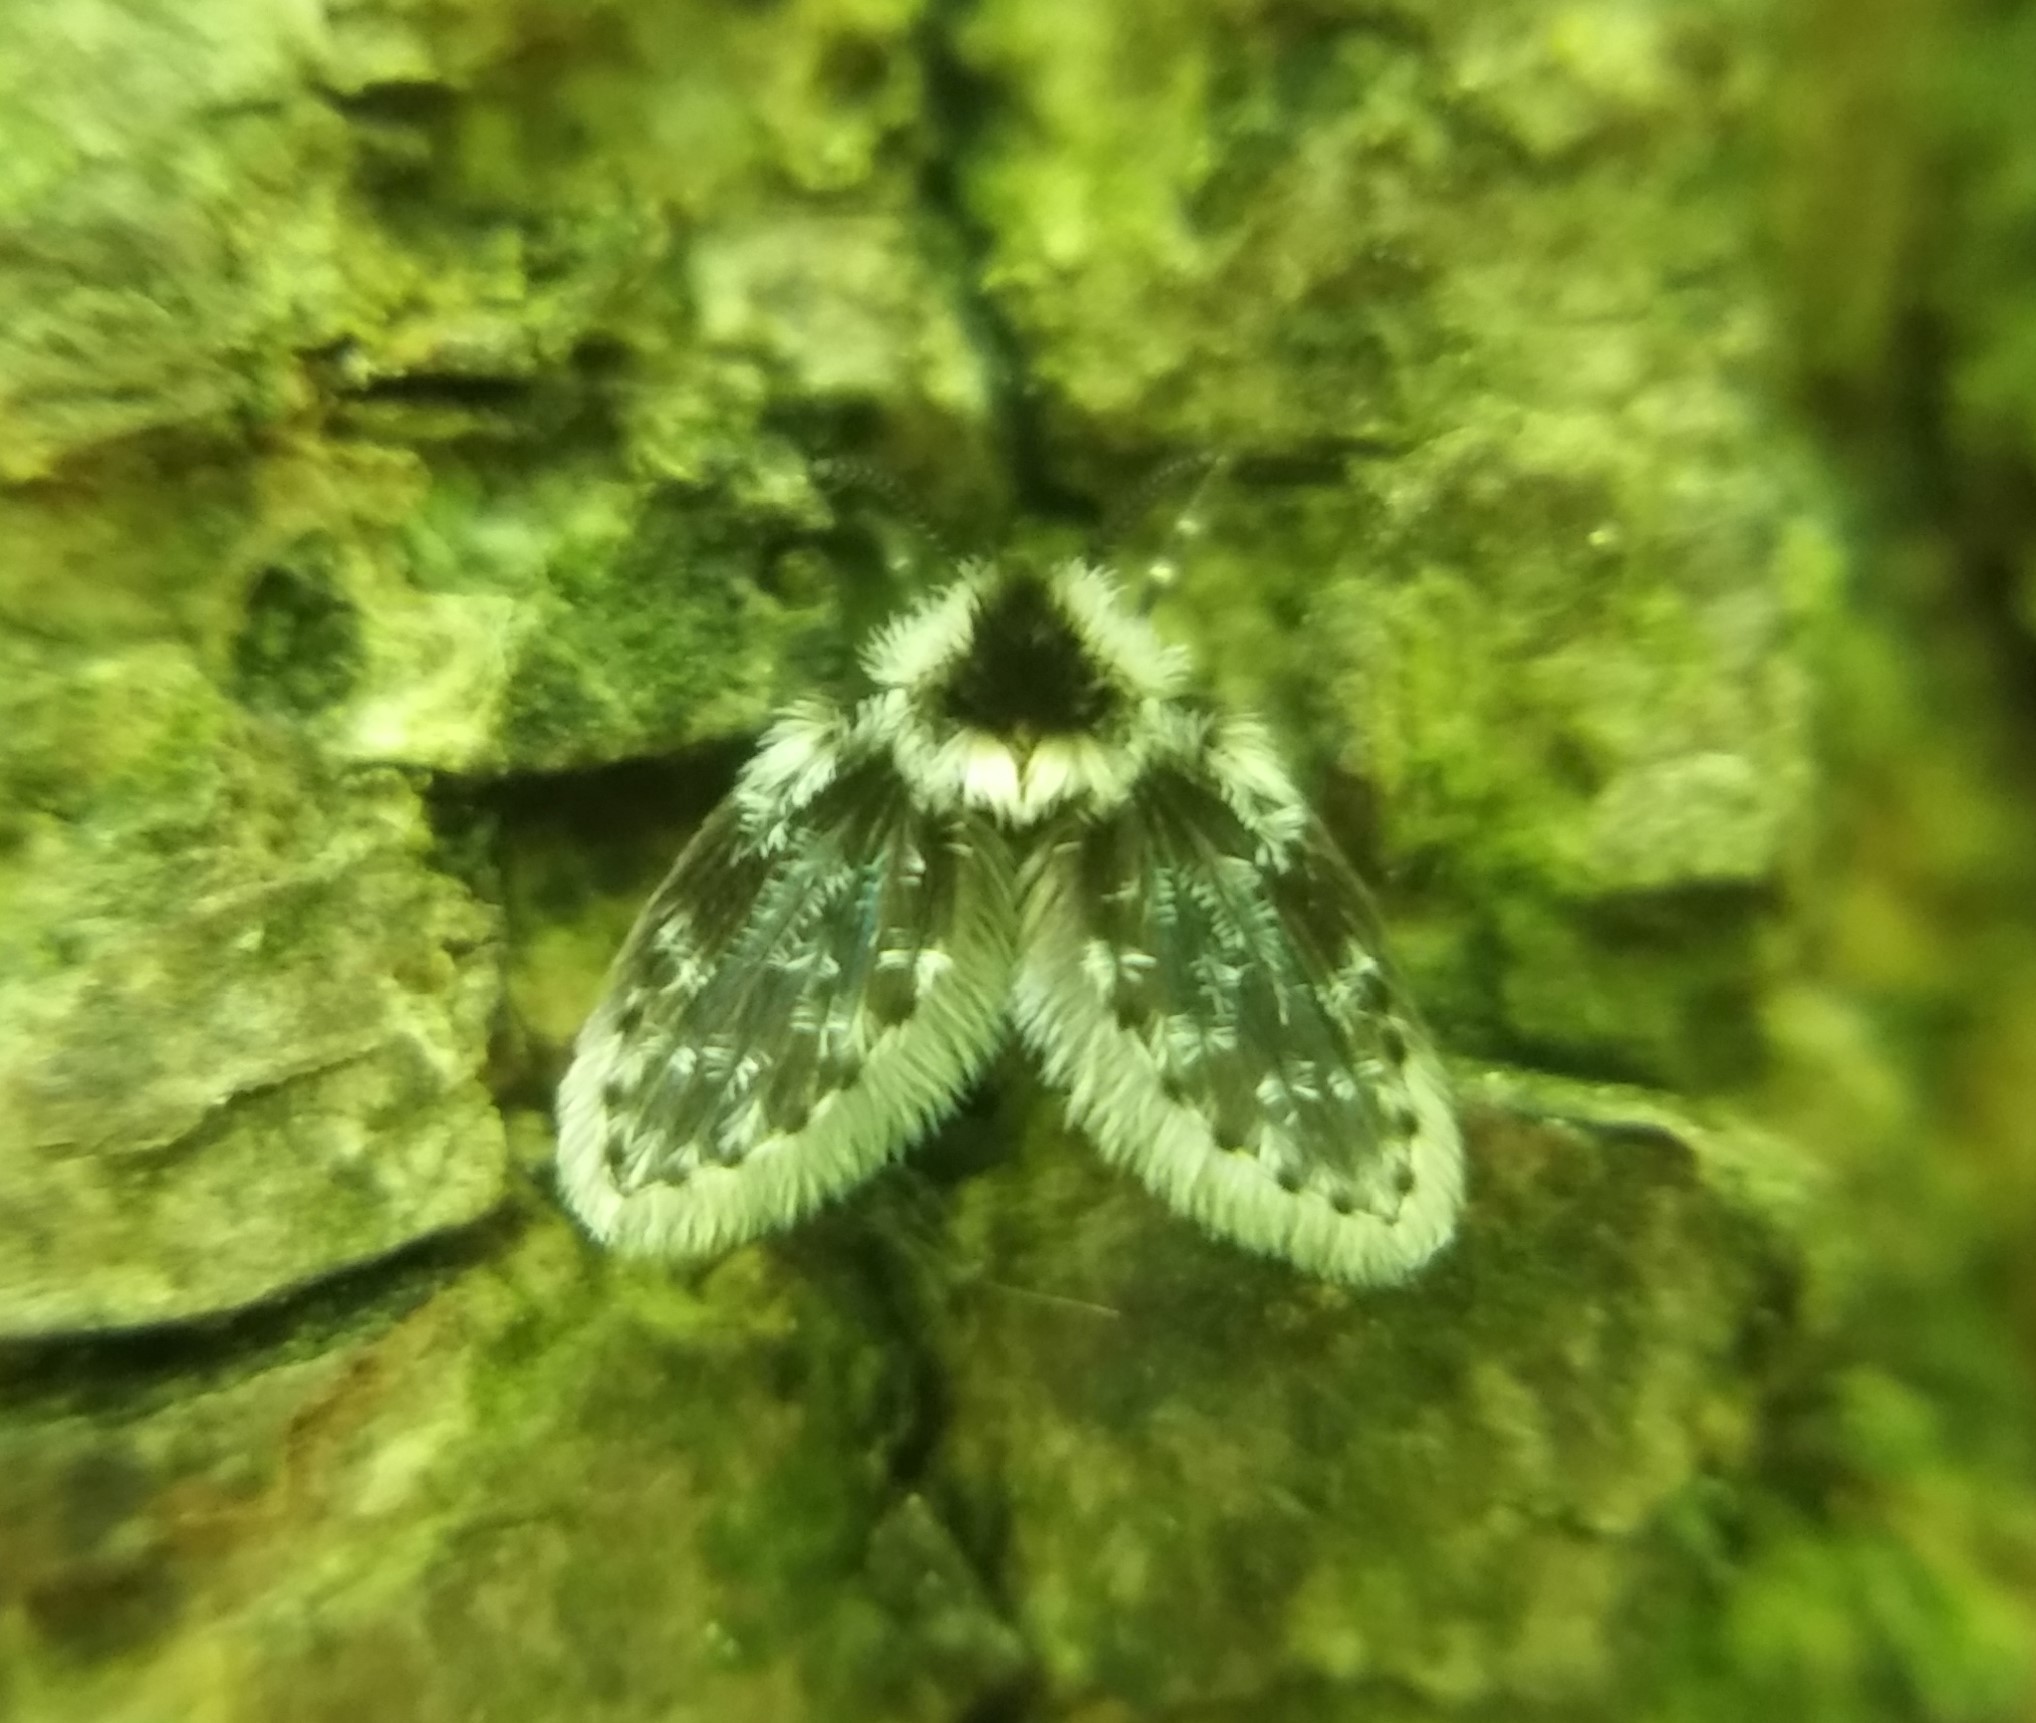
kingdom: Animalia
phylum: Arthropoda
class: Insecta
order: Diptera
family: Psychodidae
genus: Lepiseodina
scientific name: Lepiseodina
